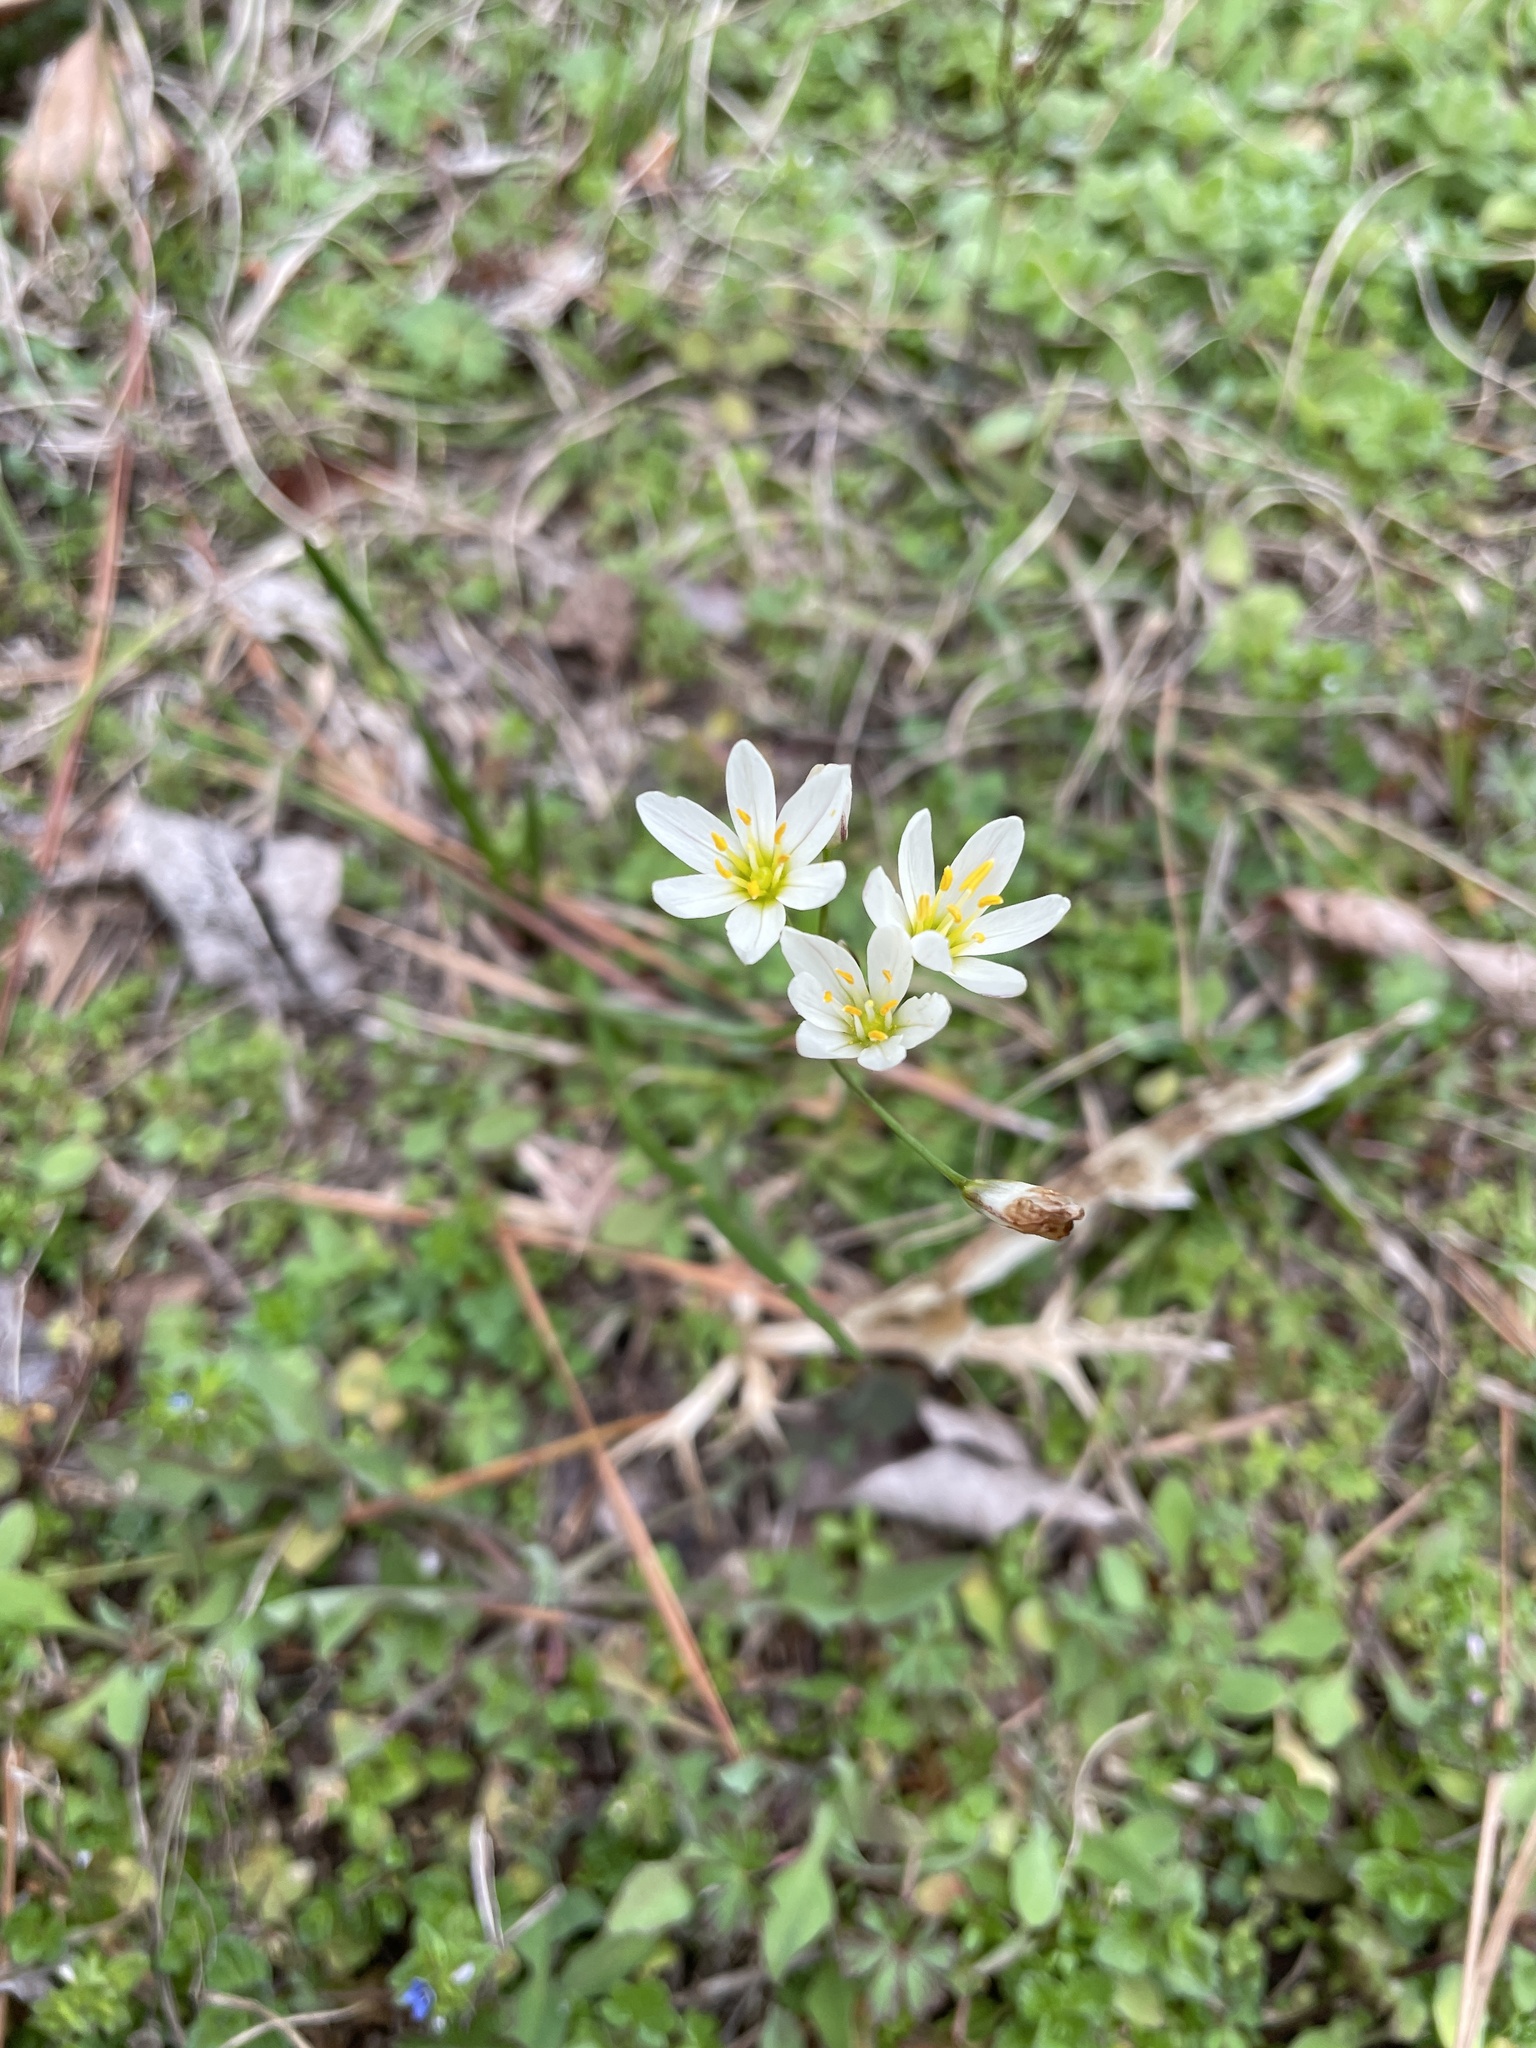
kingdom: Plantae
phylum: Tracheophyta
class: Liliopsida
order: Asparagales
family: Amaryllidaceae
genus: Nothoscordum
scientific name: Nothoscordum bivalve
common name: Crow-poison
